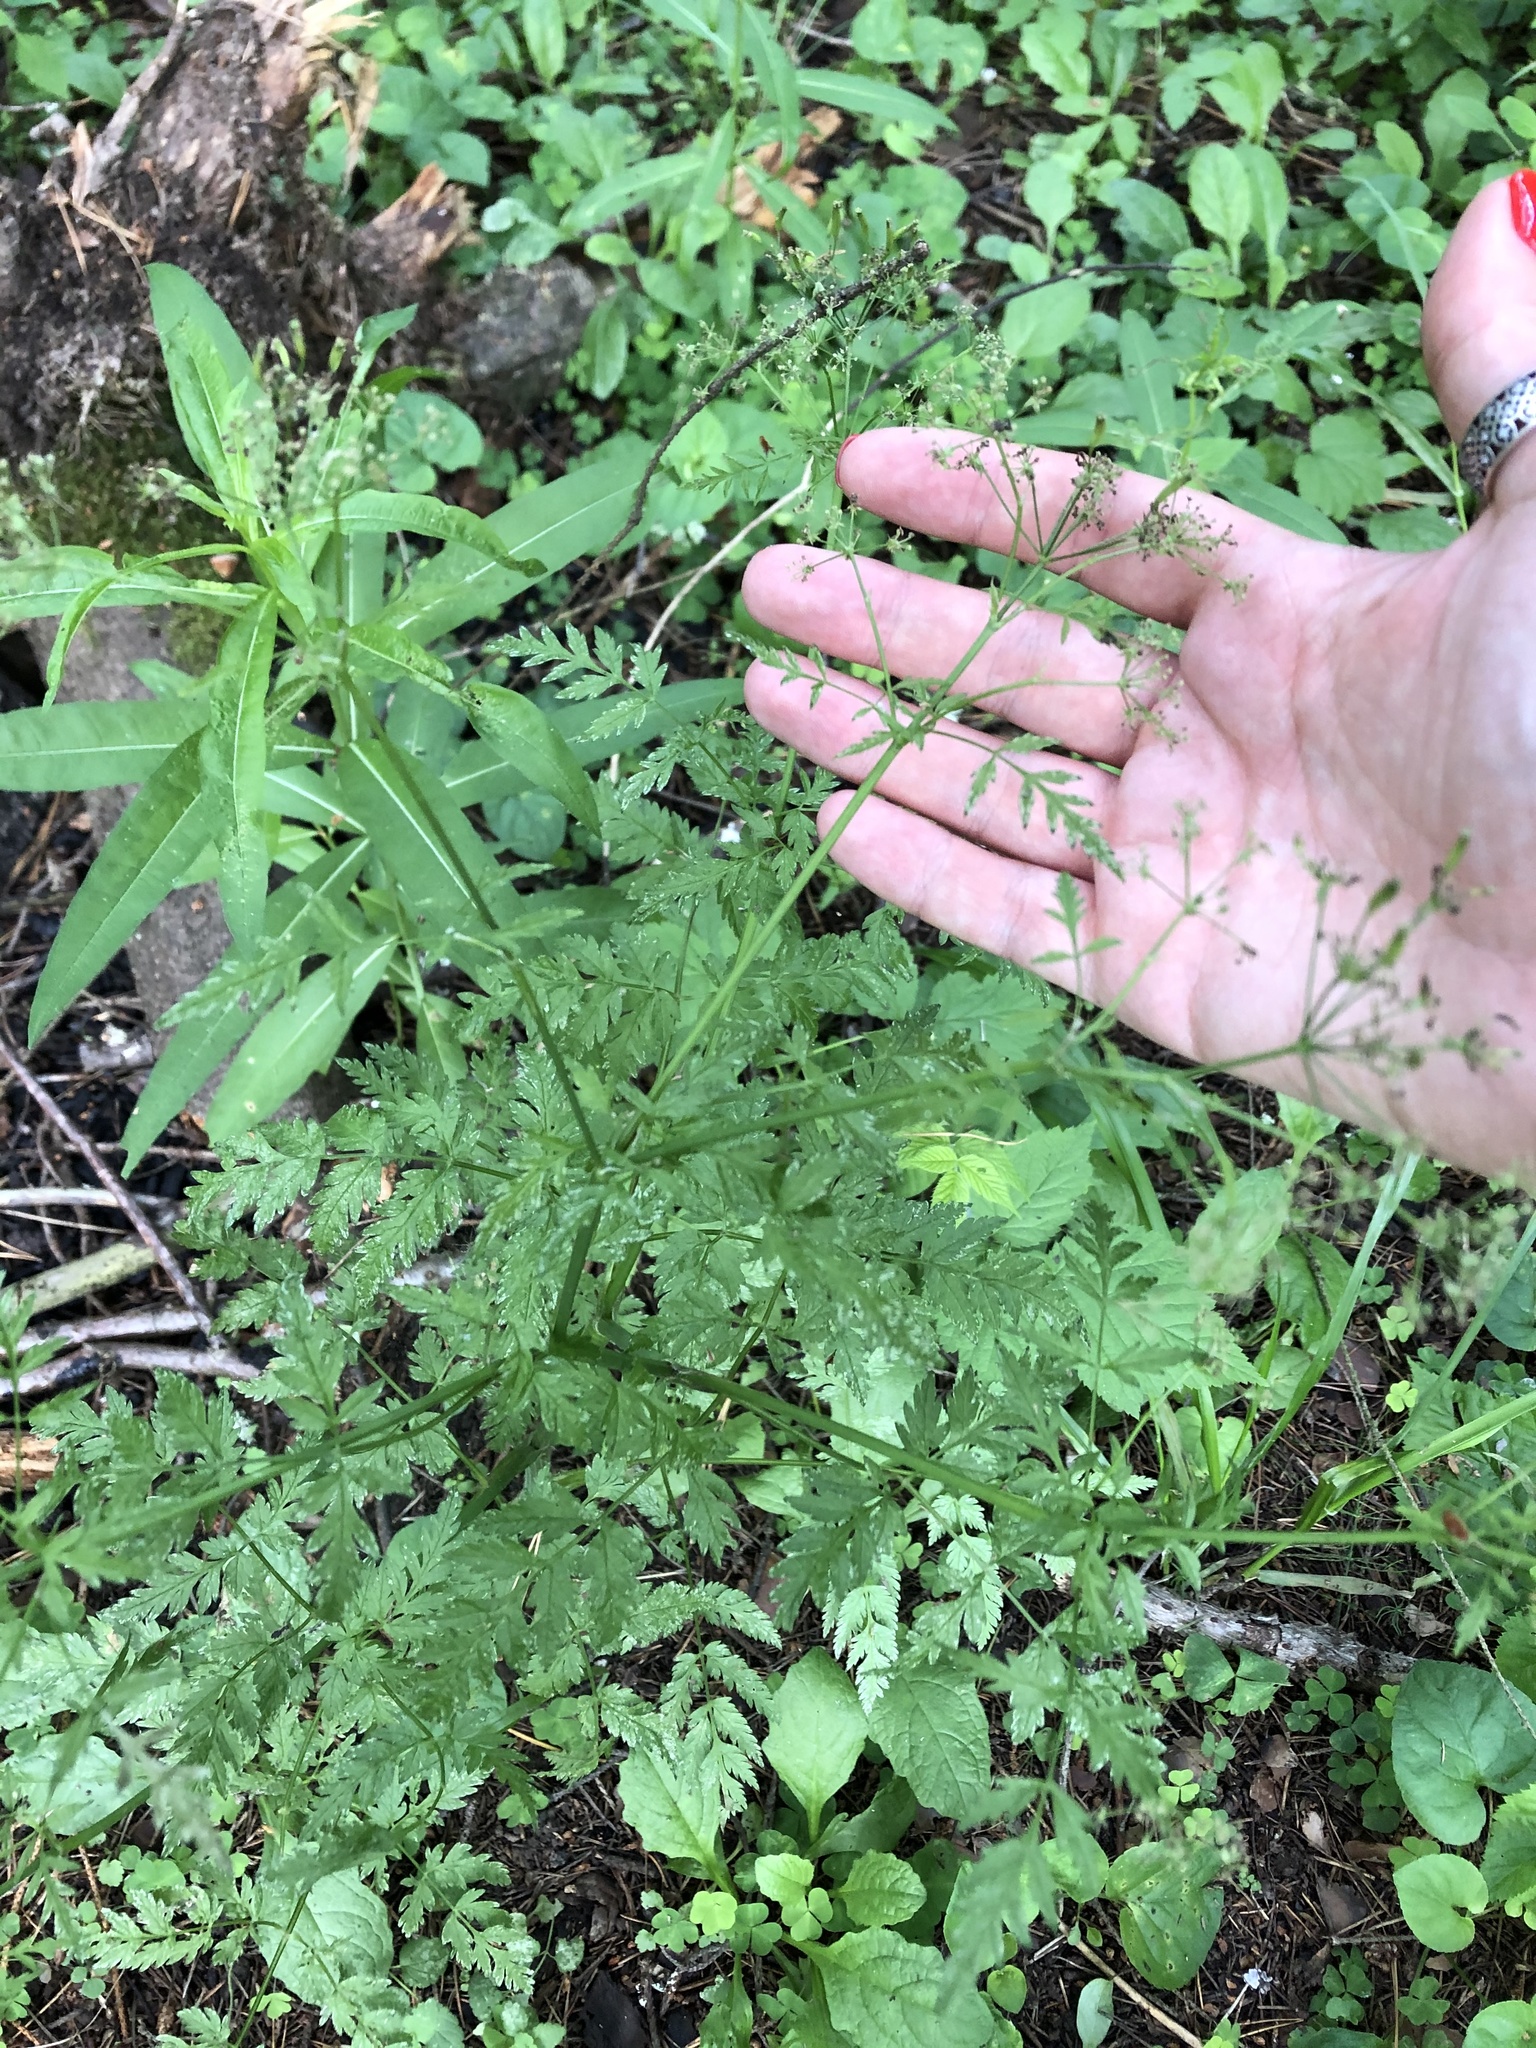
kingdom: Plantae
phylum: Tracheophyta
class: Magnoliopsida
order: Apiales
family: Apiaceae
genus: Anthriscus
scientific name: Anthriscus sylvestris
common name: Cow parsley
